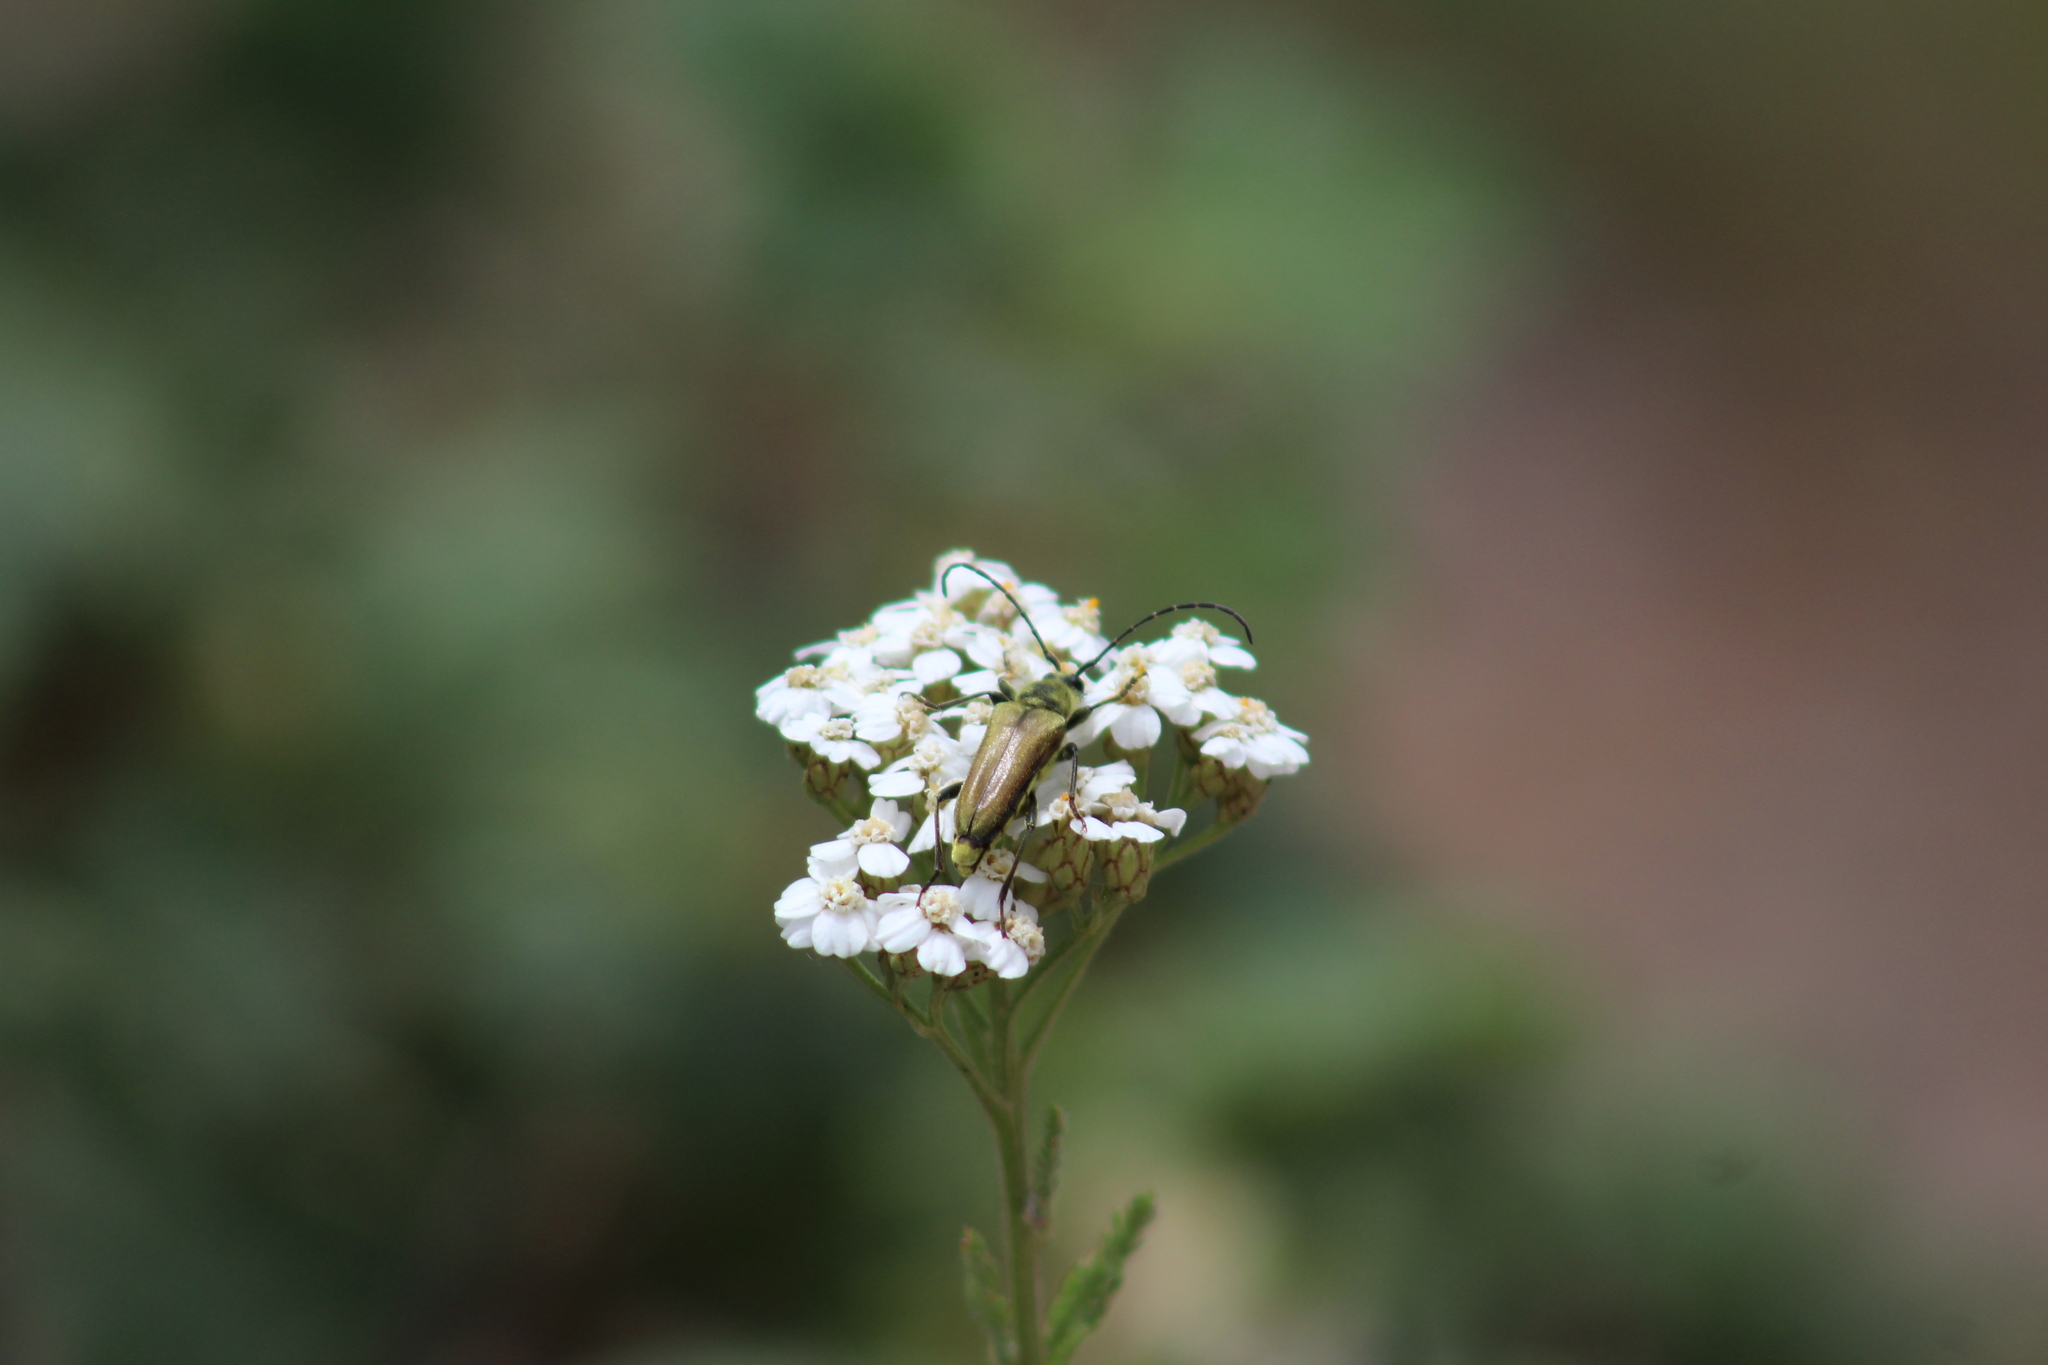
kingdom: Animalia
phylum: Arthropoda
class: Insecta
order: Coleoptera
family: Cerambycidae
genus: Cosmosalia
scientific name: Cosmosalia chrysocoma
